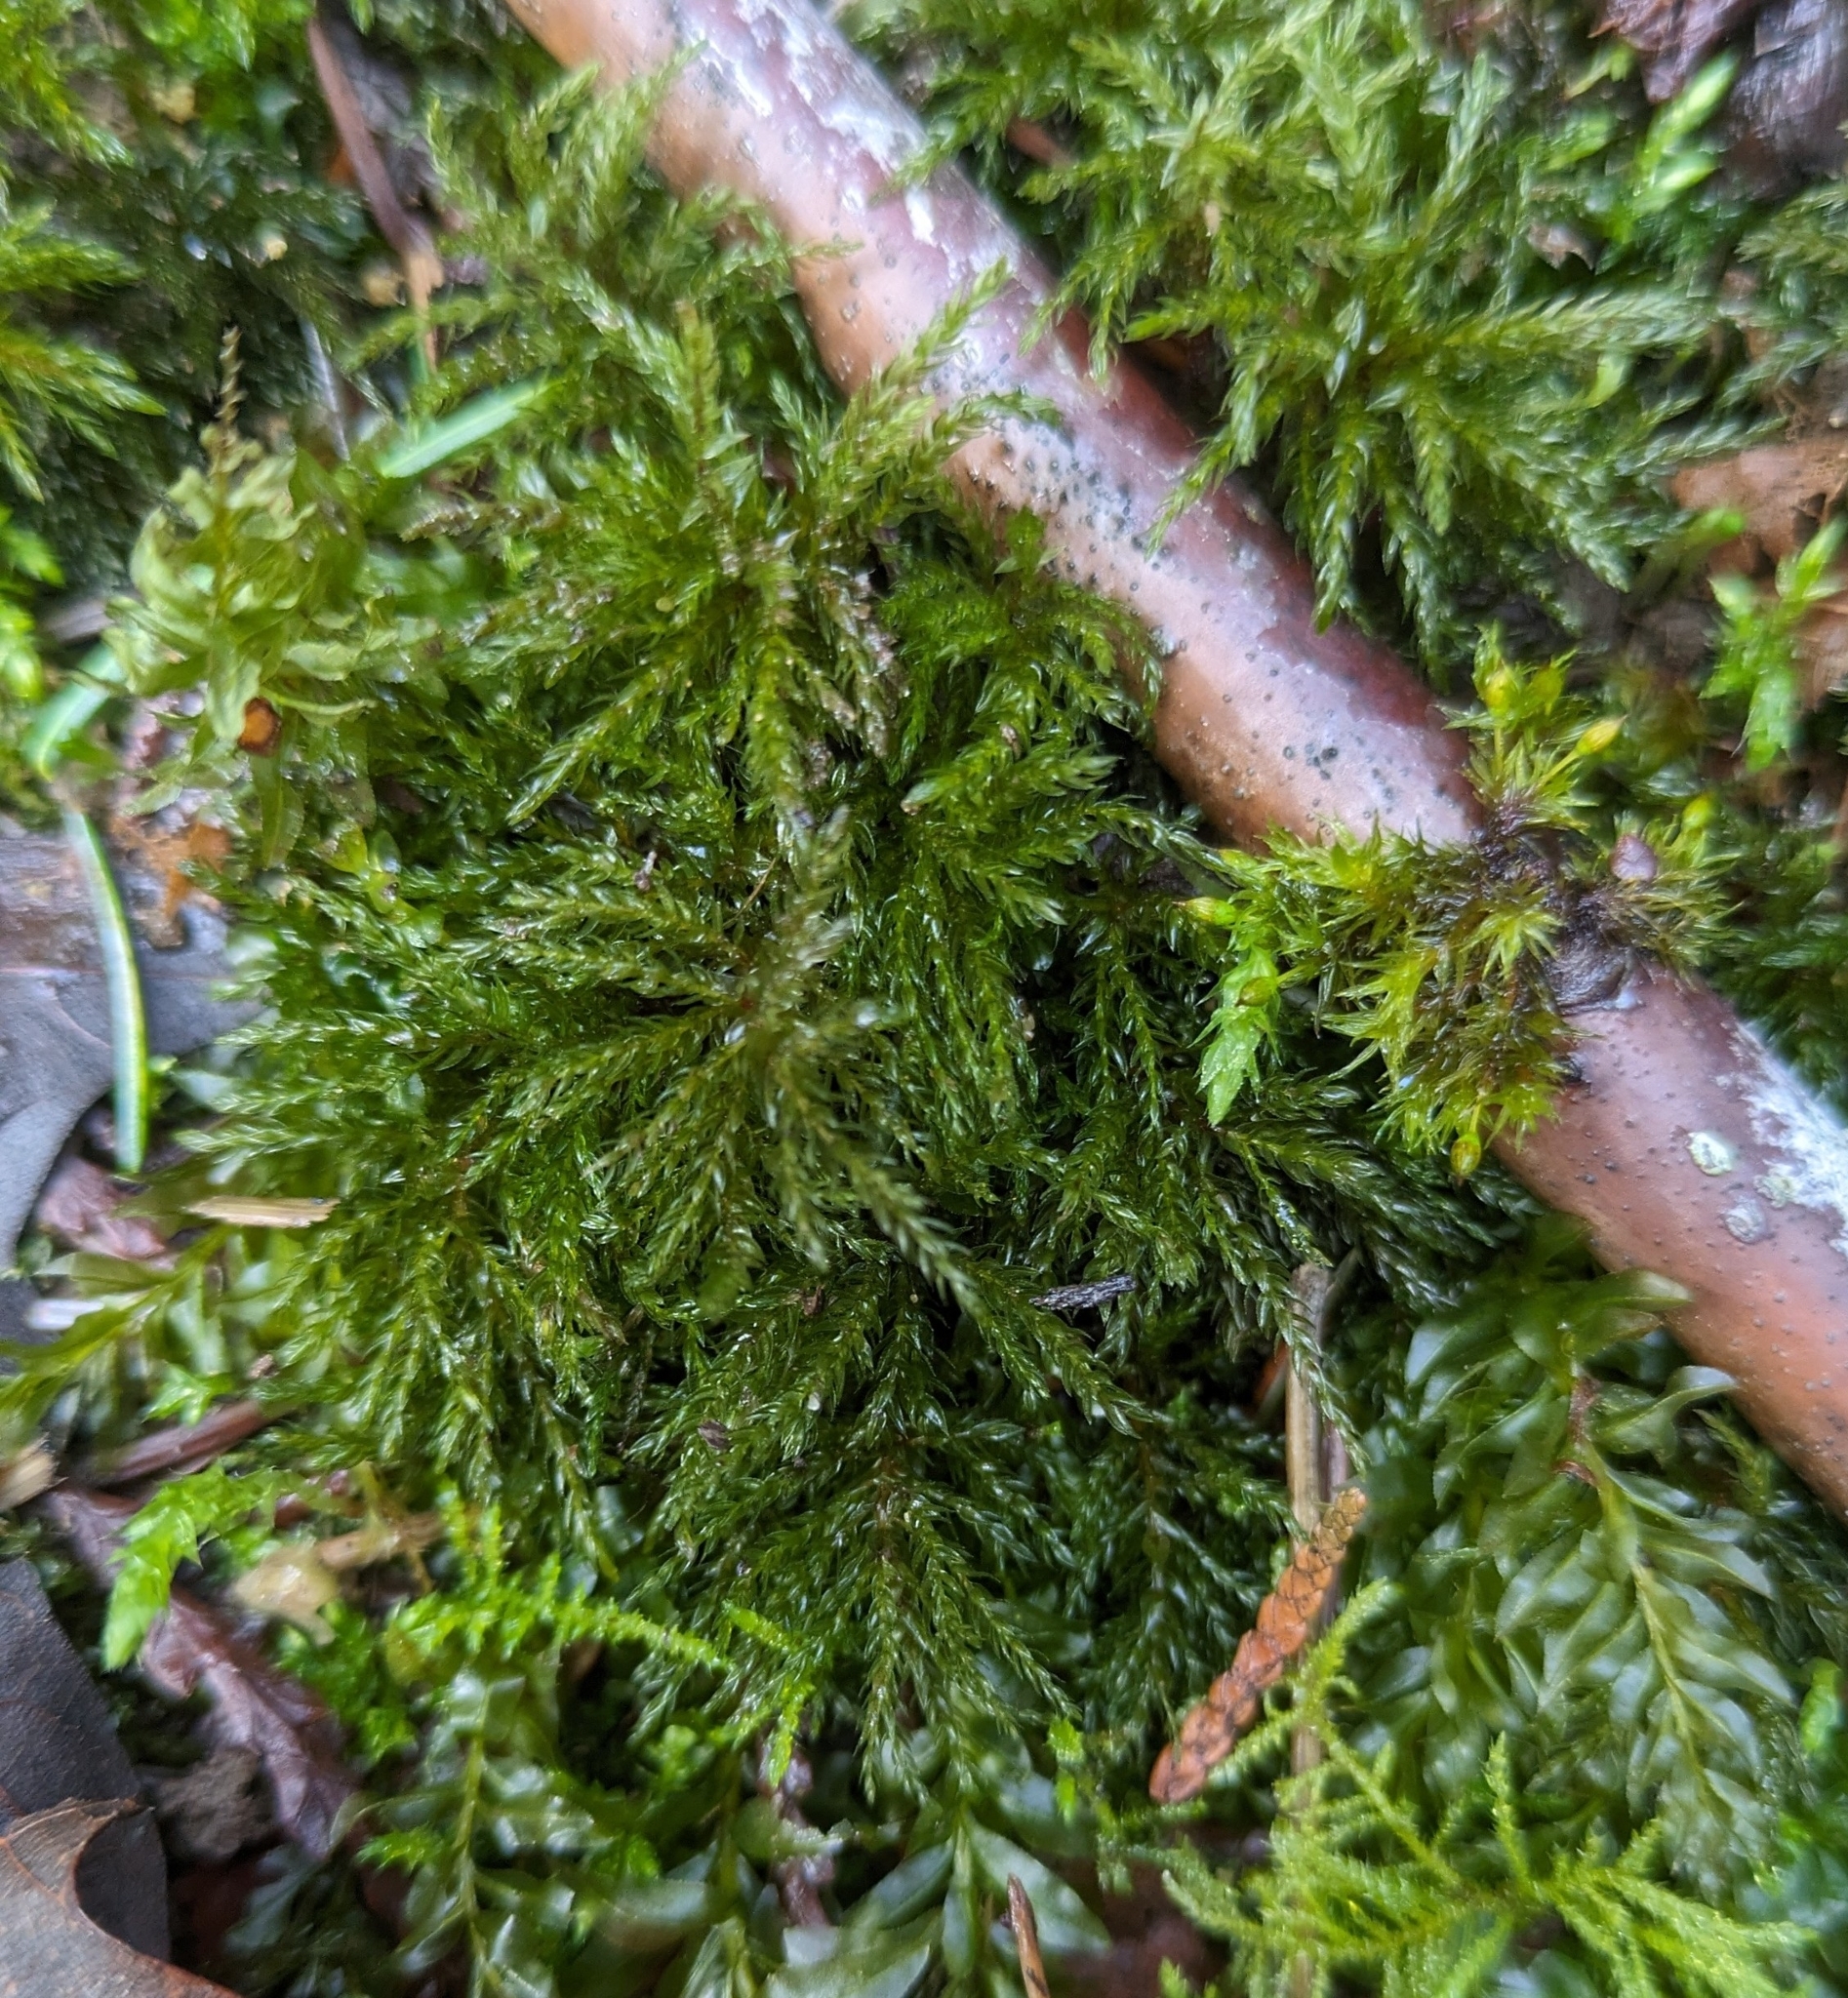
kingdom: Plantae
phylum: Bryophyta
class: Bryopsida
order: Bryales
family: Mniaceae
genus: Leucolepis
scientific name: Leucolepis acanthoneura
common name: Leucolepis umbrella moss
